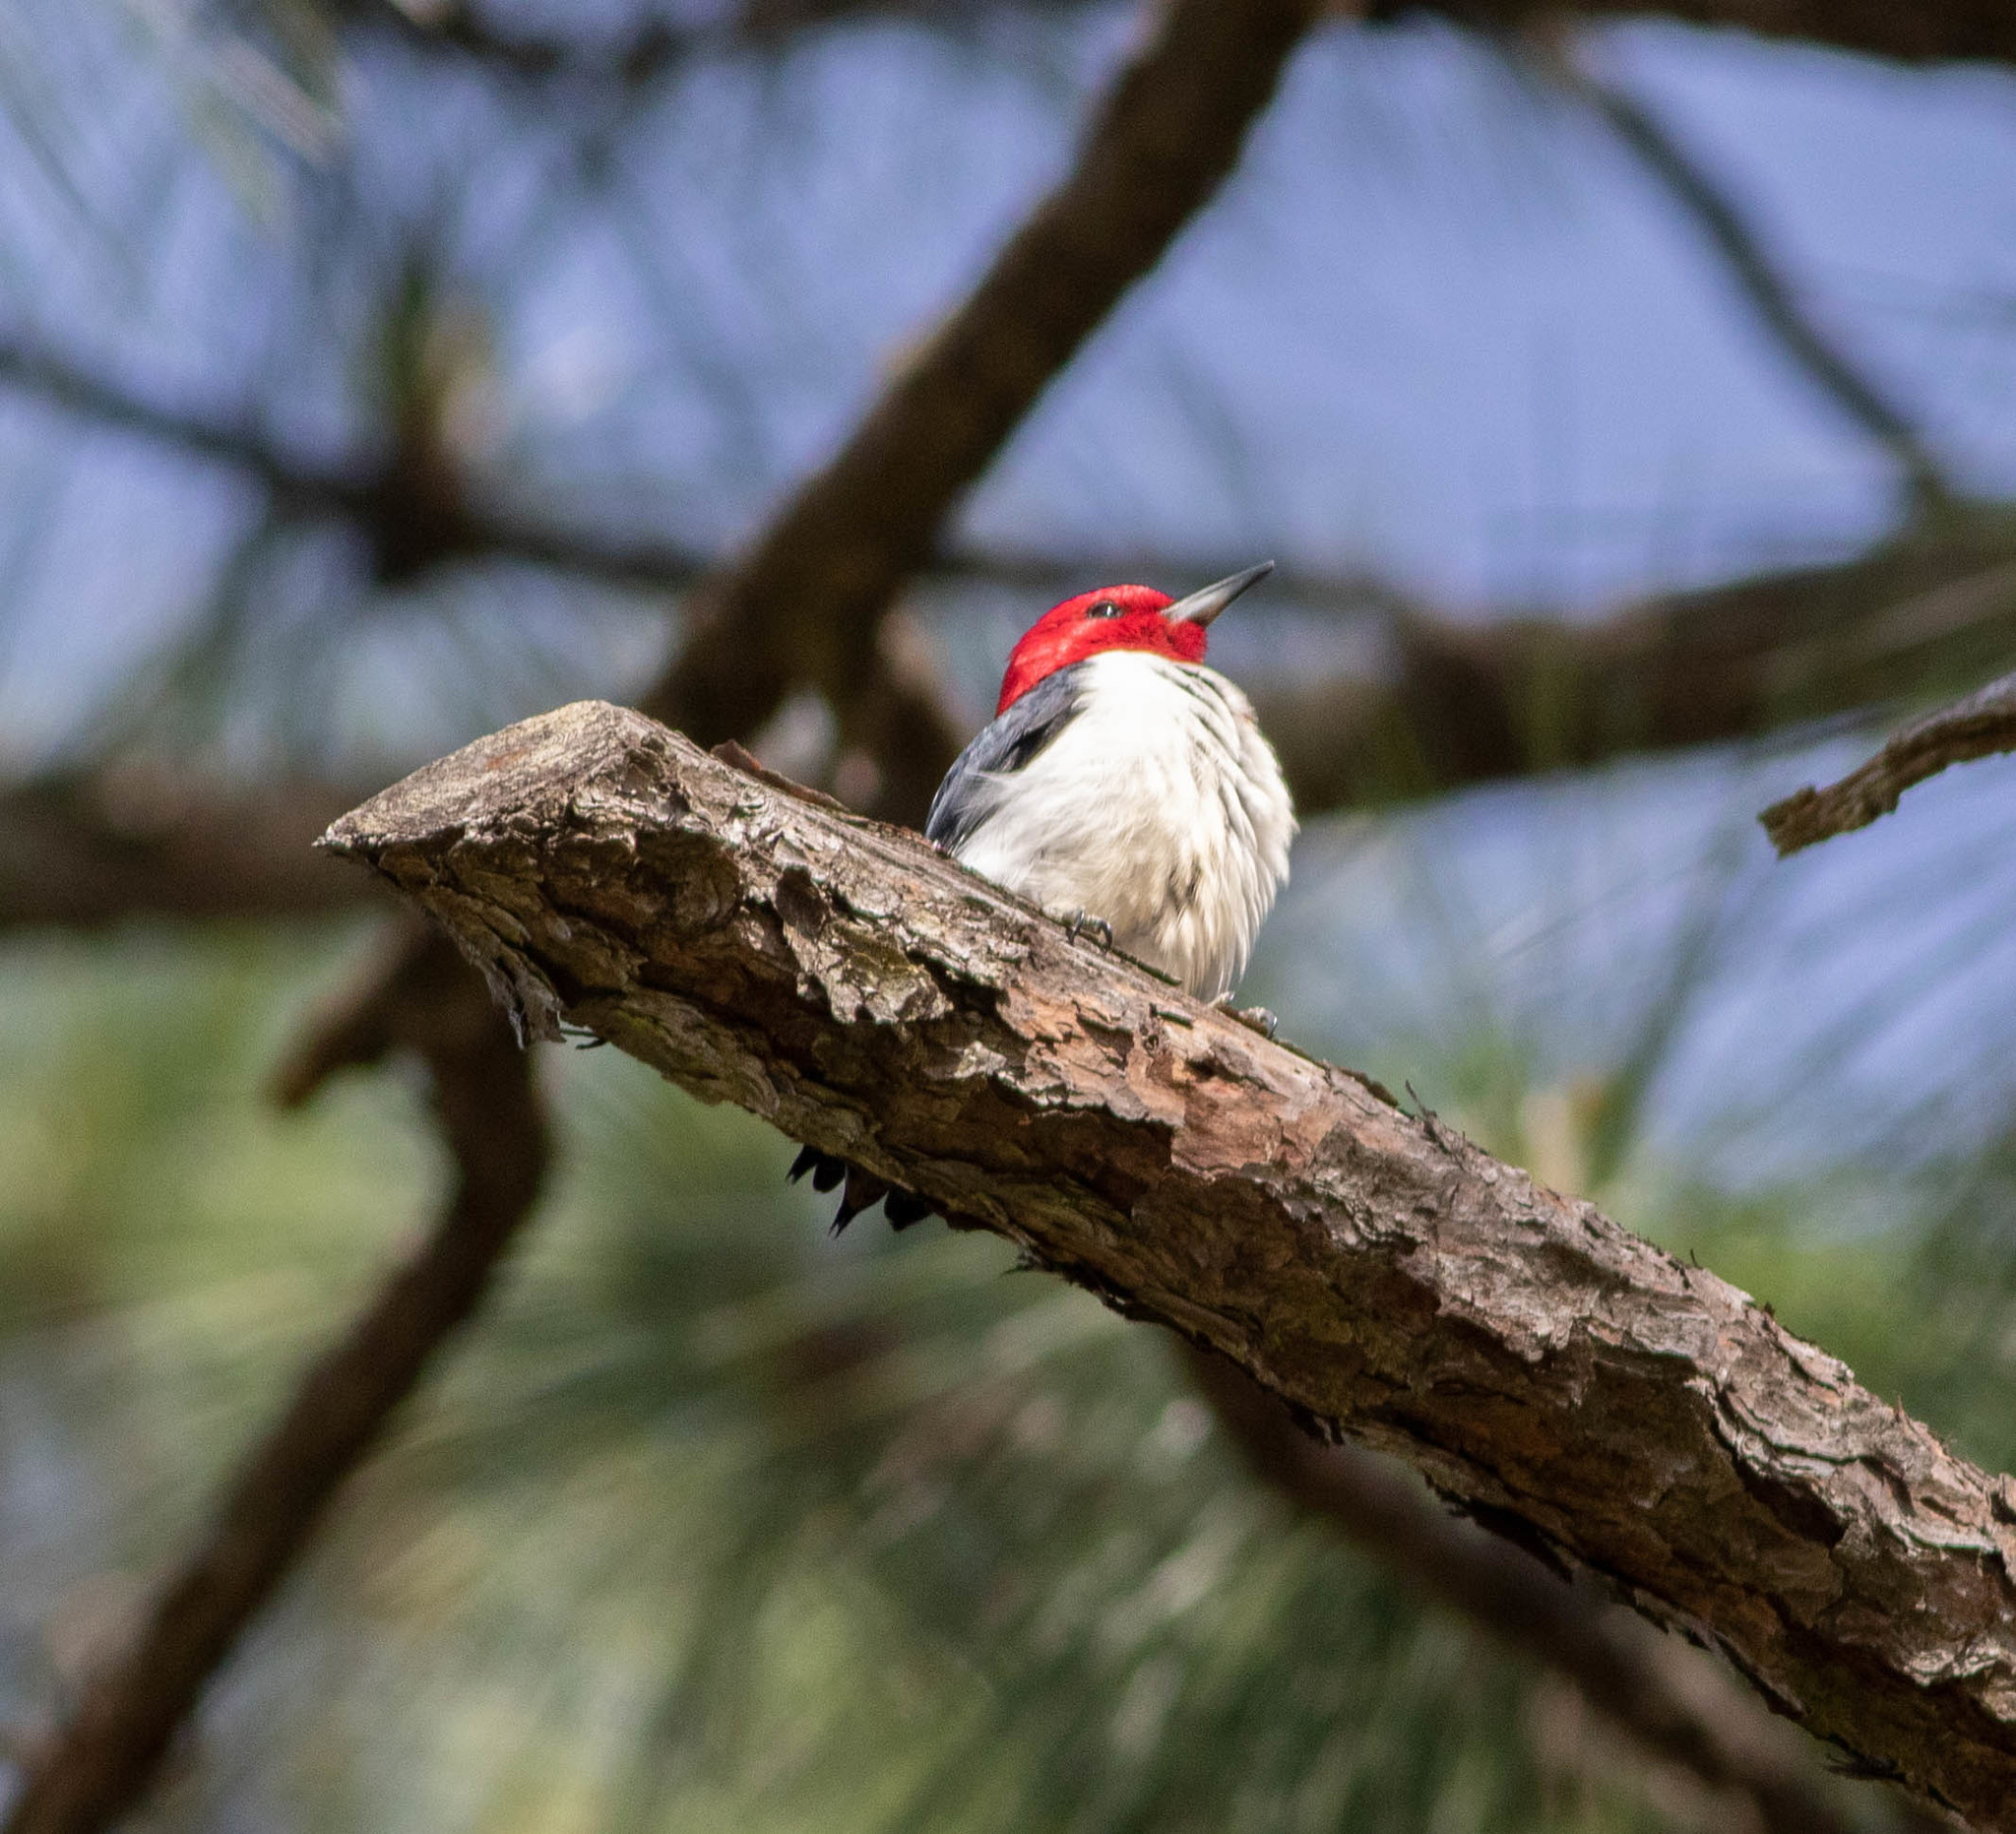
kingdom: Animalia
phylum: Chordata
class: Aves
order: Piciformes
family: Picidae
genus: Melanerpes
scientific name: Melanerpes erythrocephalus
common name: Red-headed woodpecker
